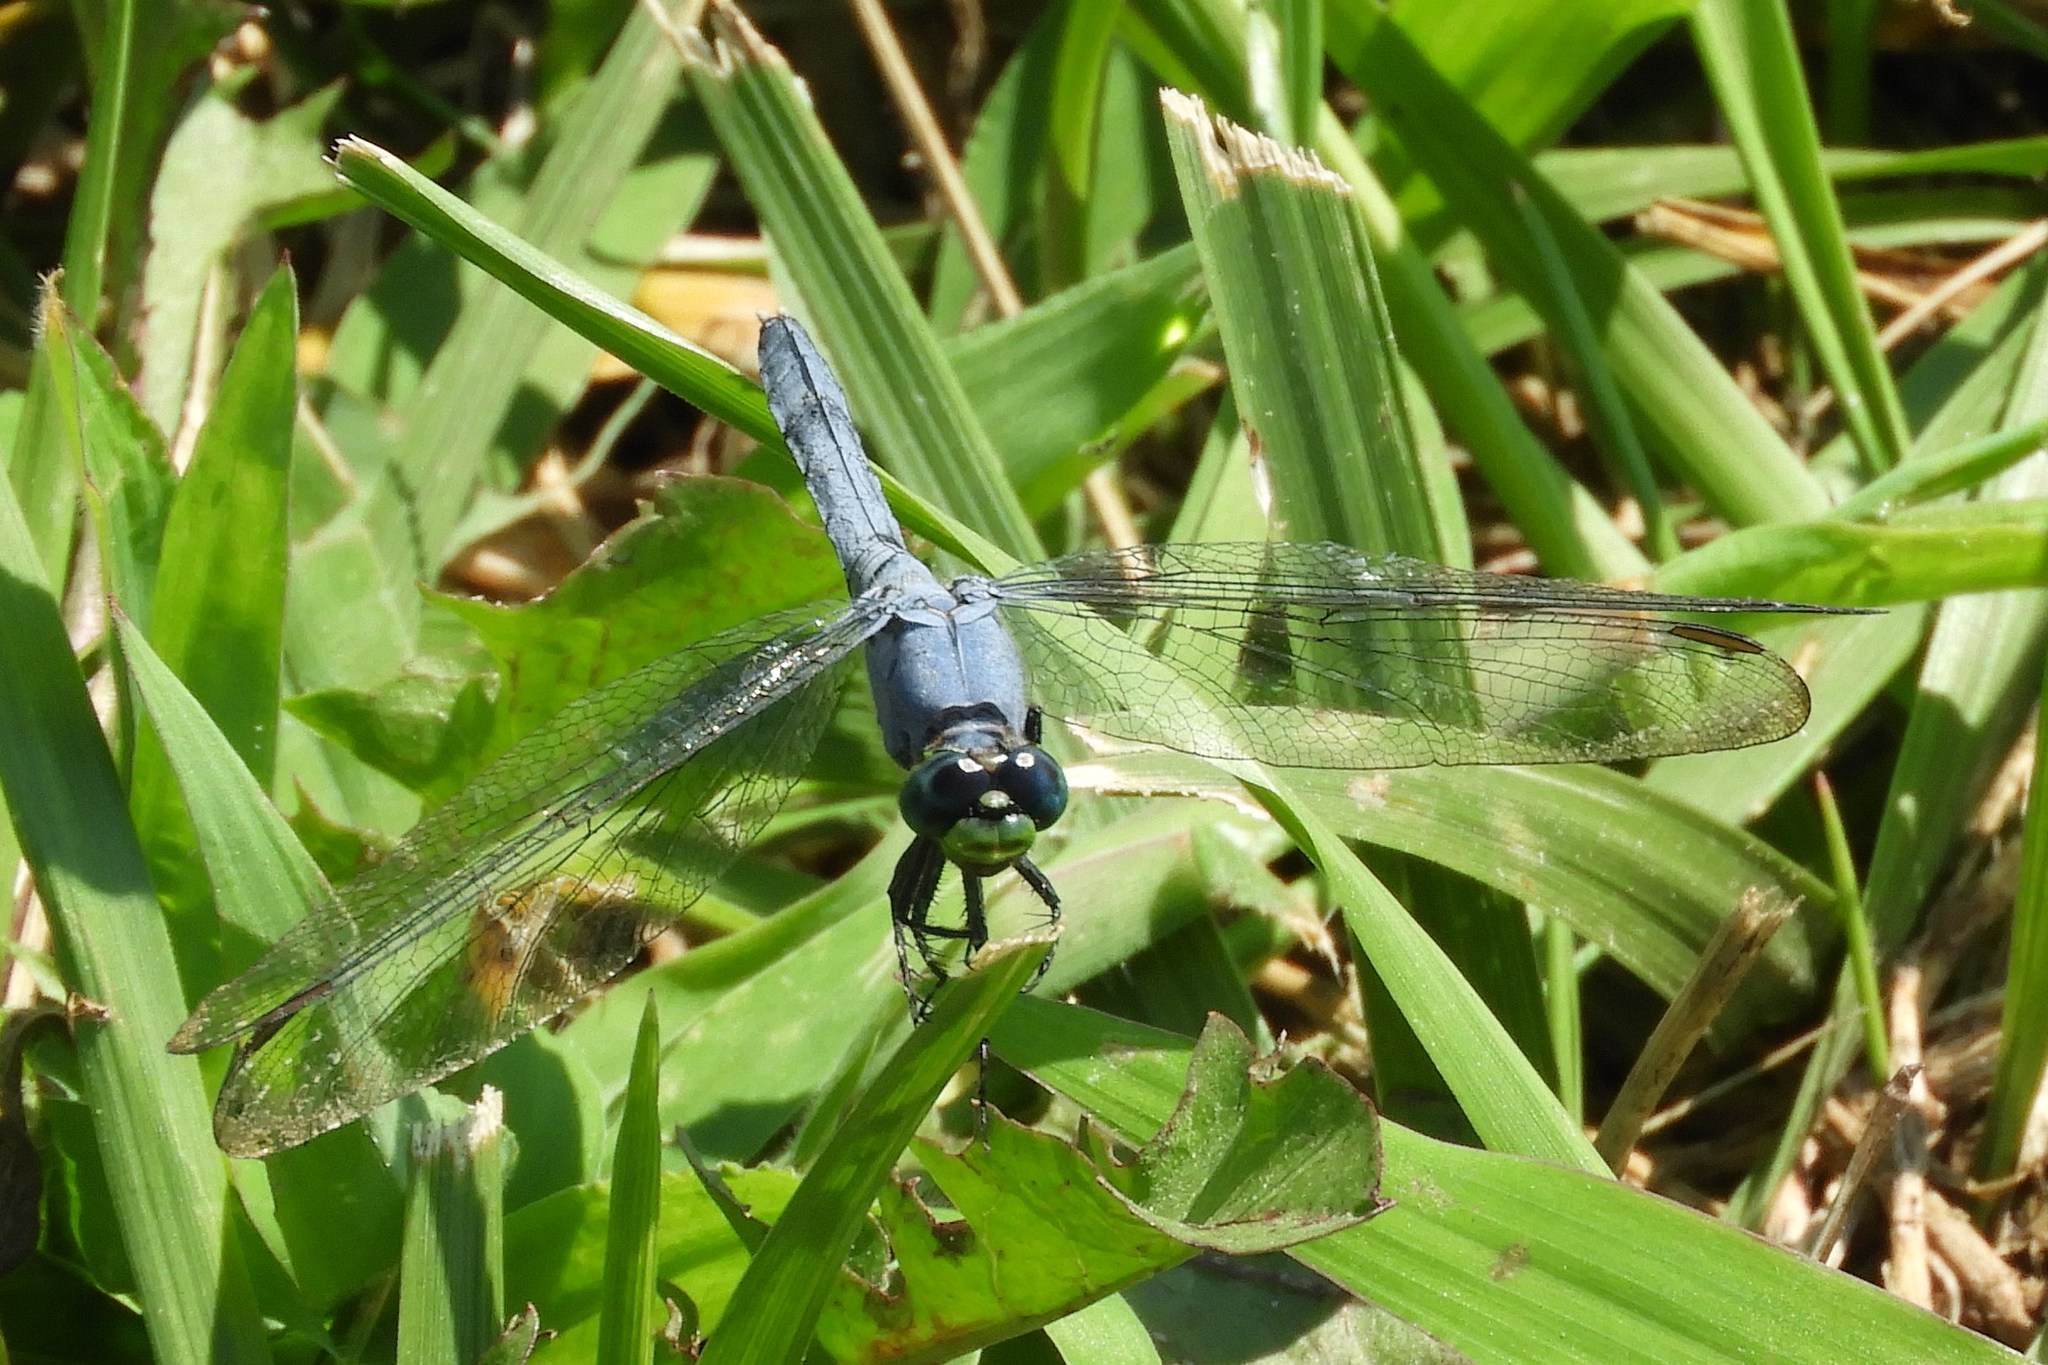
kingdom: Animalia
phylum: Arthropoda
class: Insecta
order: Odonata
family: Libellulidae
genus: Erythemis
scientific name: Erythemis simplicicollis
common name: Eastern pondhawk
